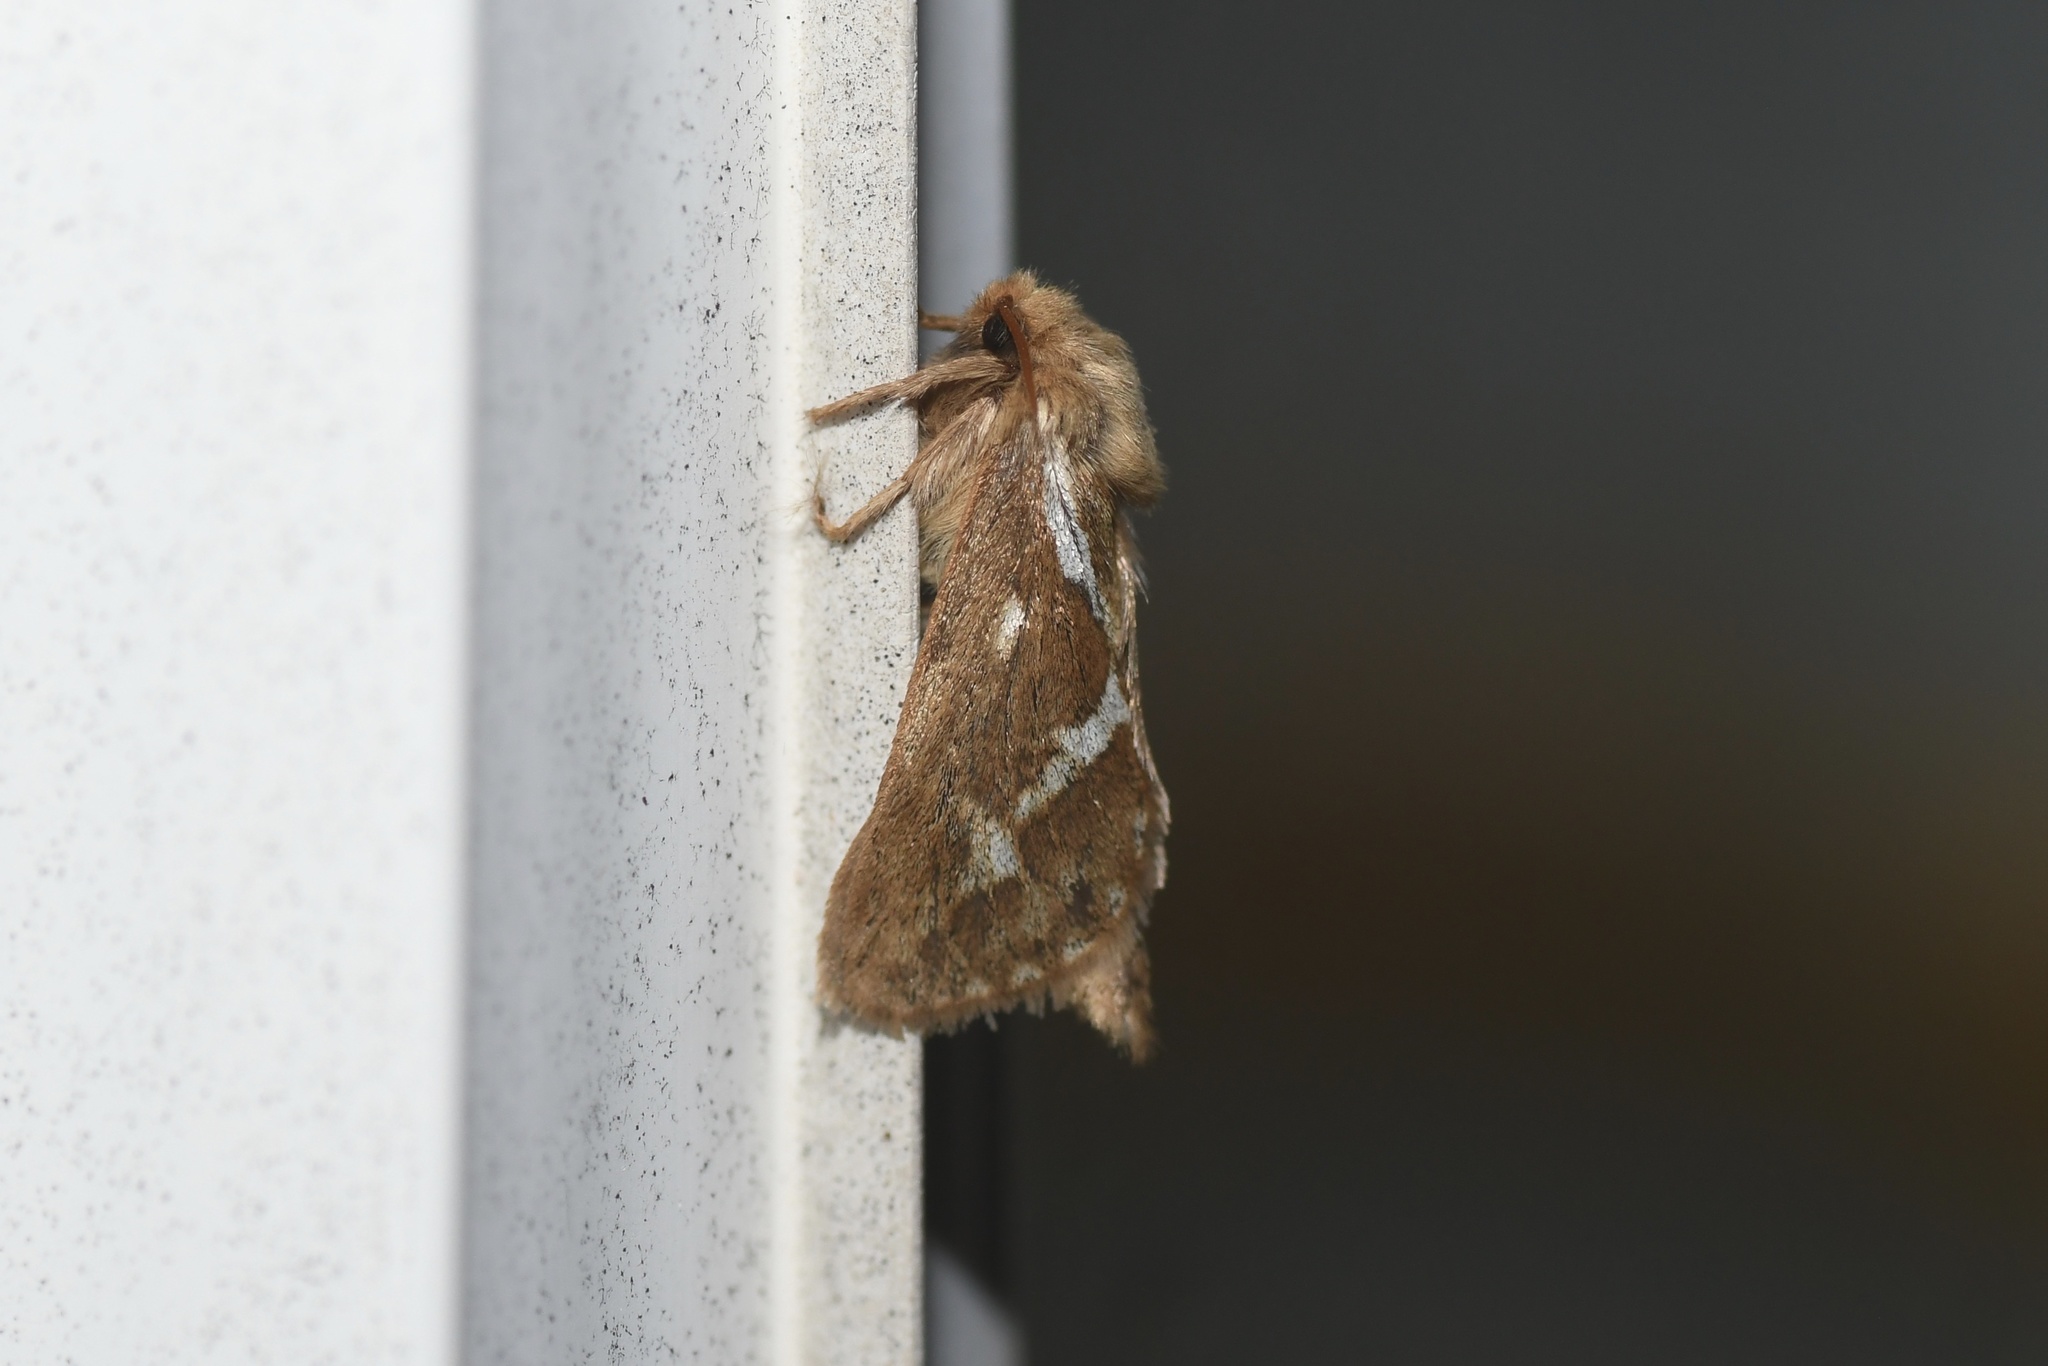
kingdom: Animalia
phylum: Arthropoda
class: Insecta
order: Lepidoptera
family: Hepialidae
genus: Korscheltellus
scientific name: Korscheltellus lupulina
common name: Common swift
